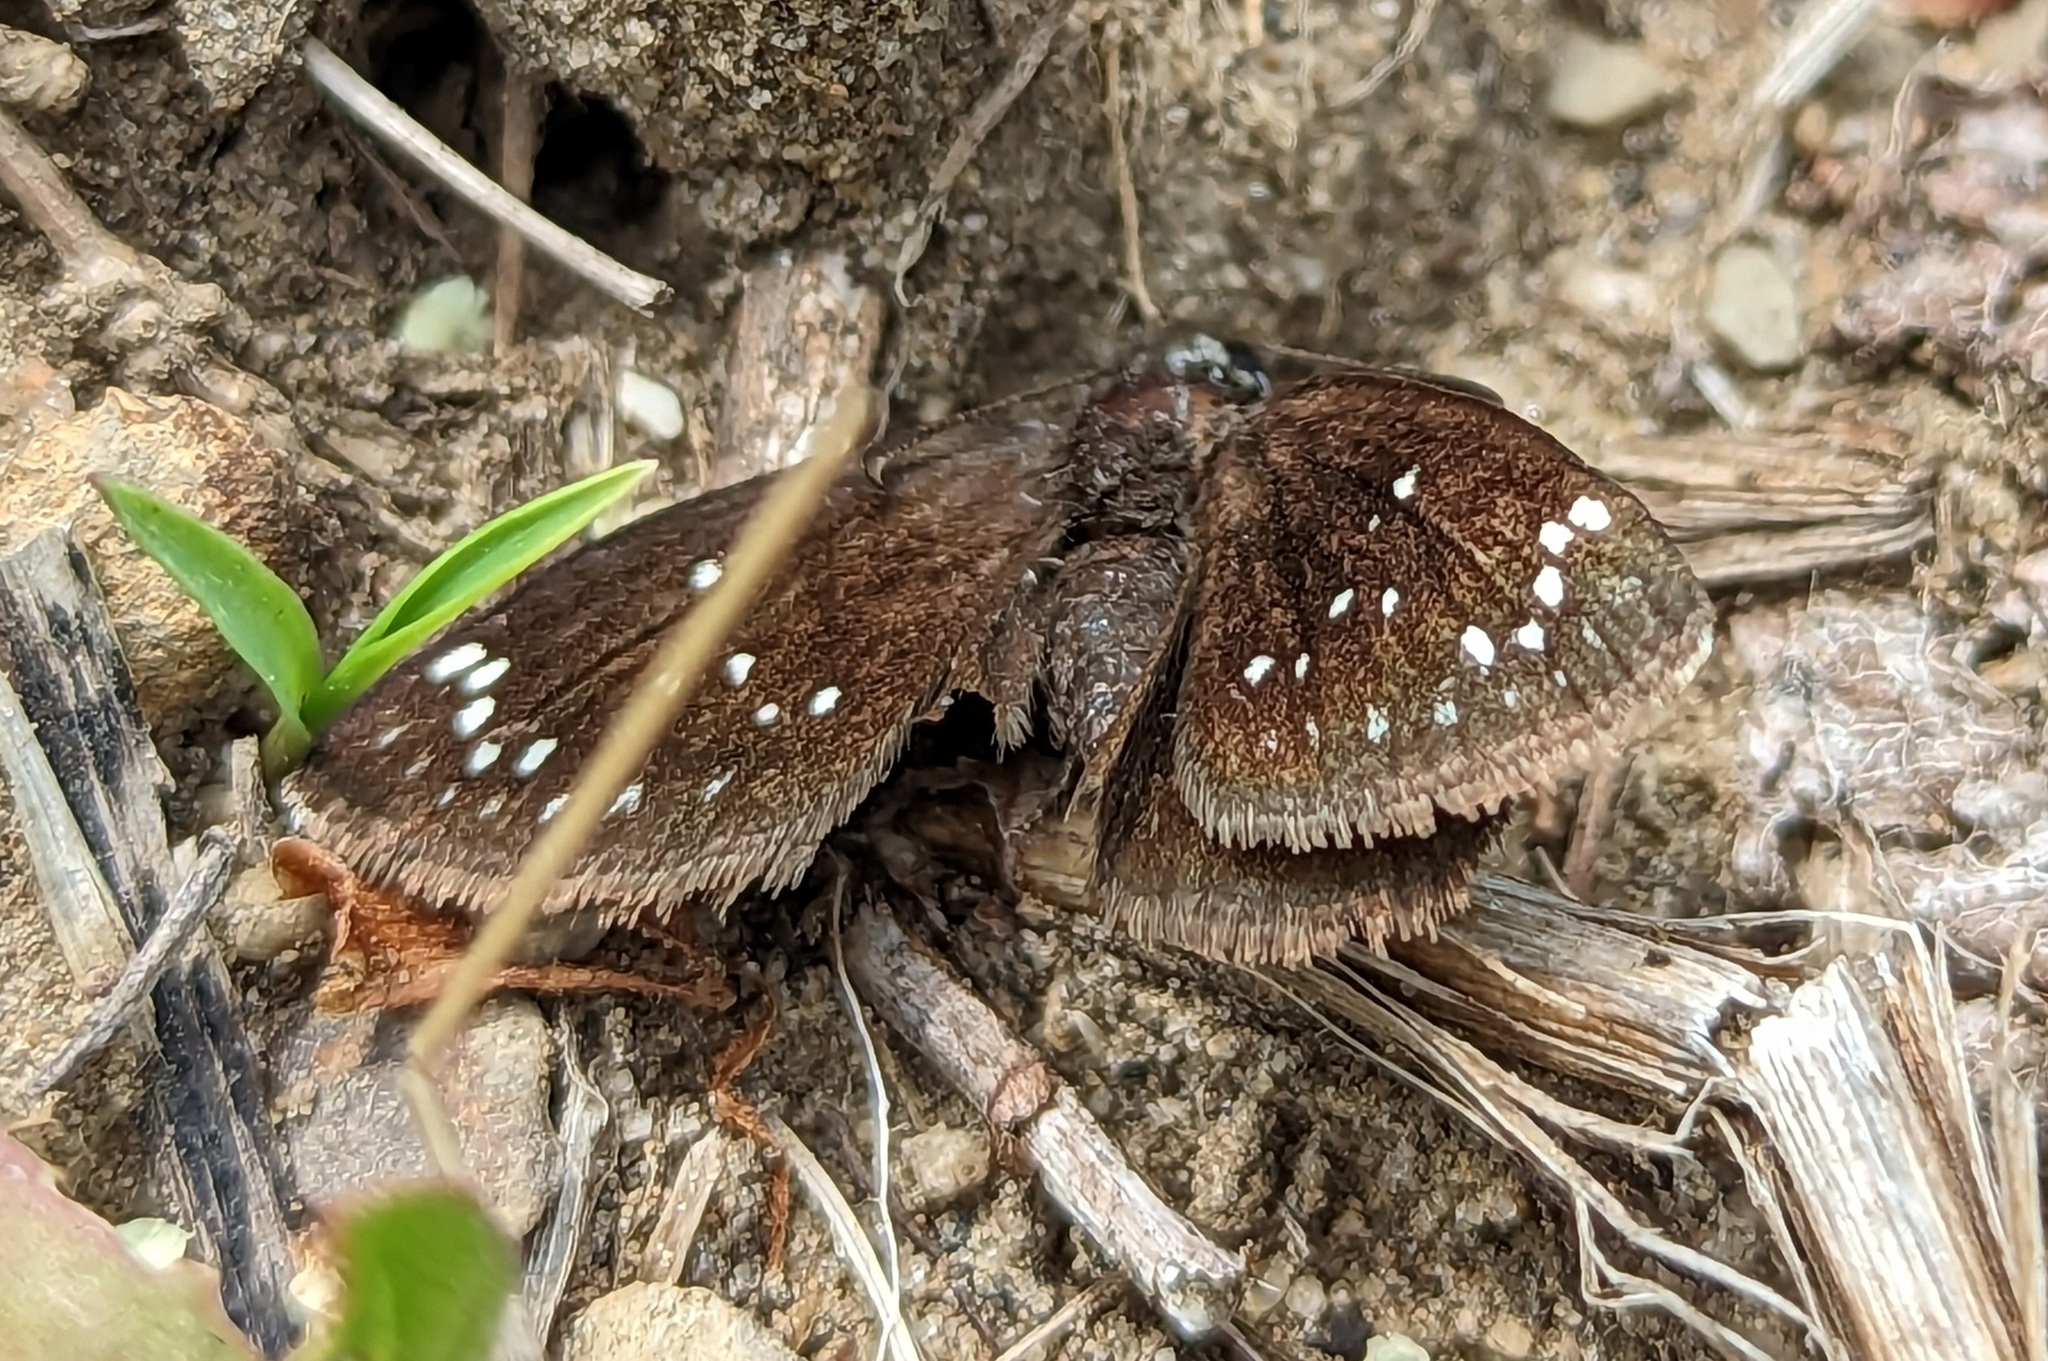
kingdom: Animalia
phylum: Arthropoda
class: Insecta
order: Lepidoptera
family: Hesperiidae
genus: Pholisora
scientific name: Pholisora catullus
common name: Common sootywing
